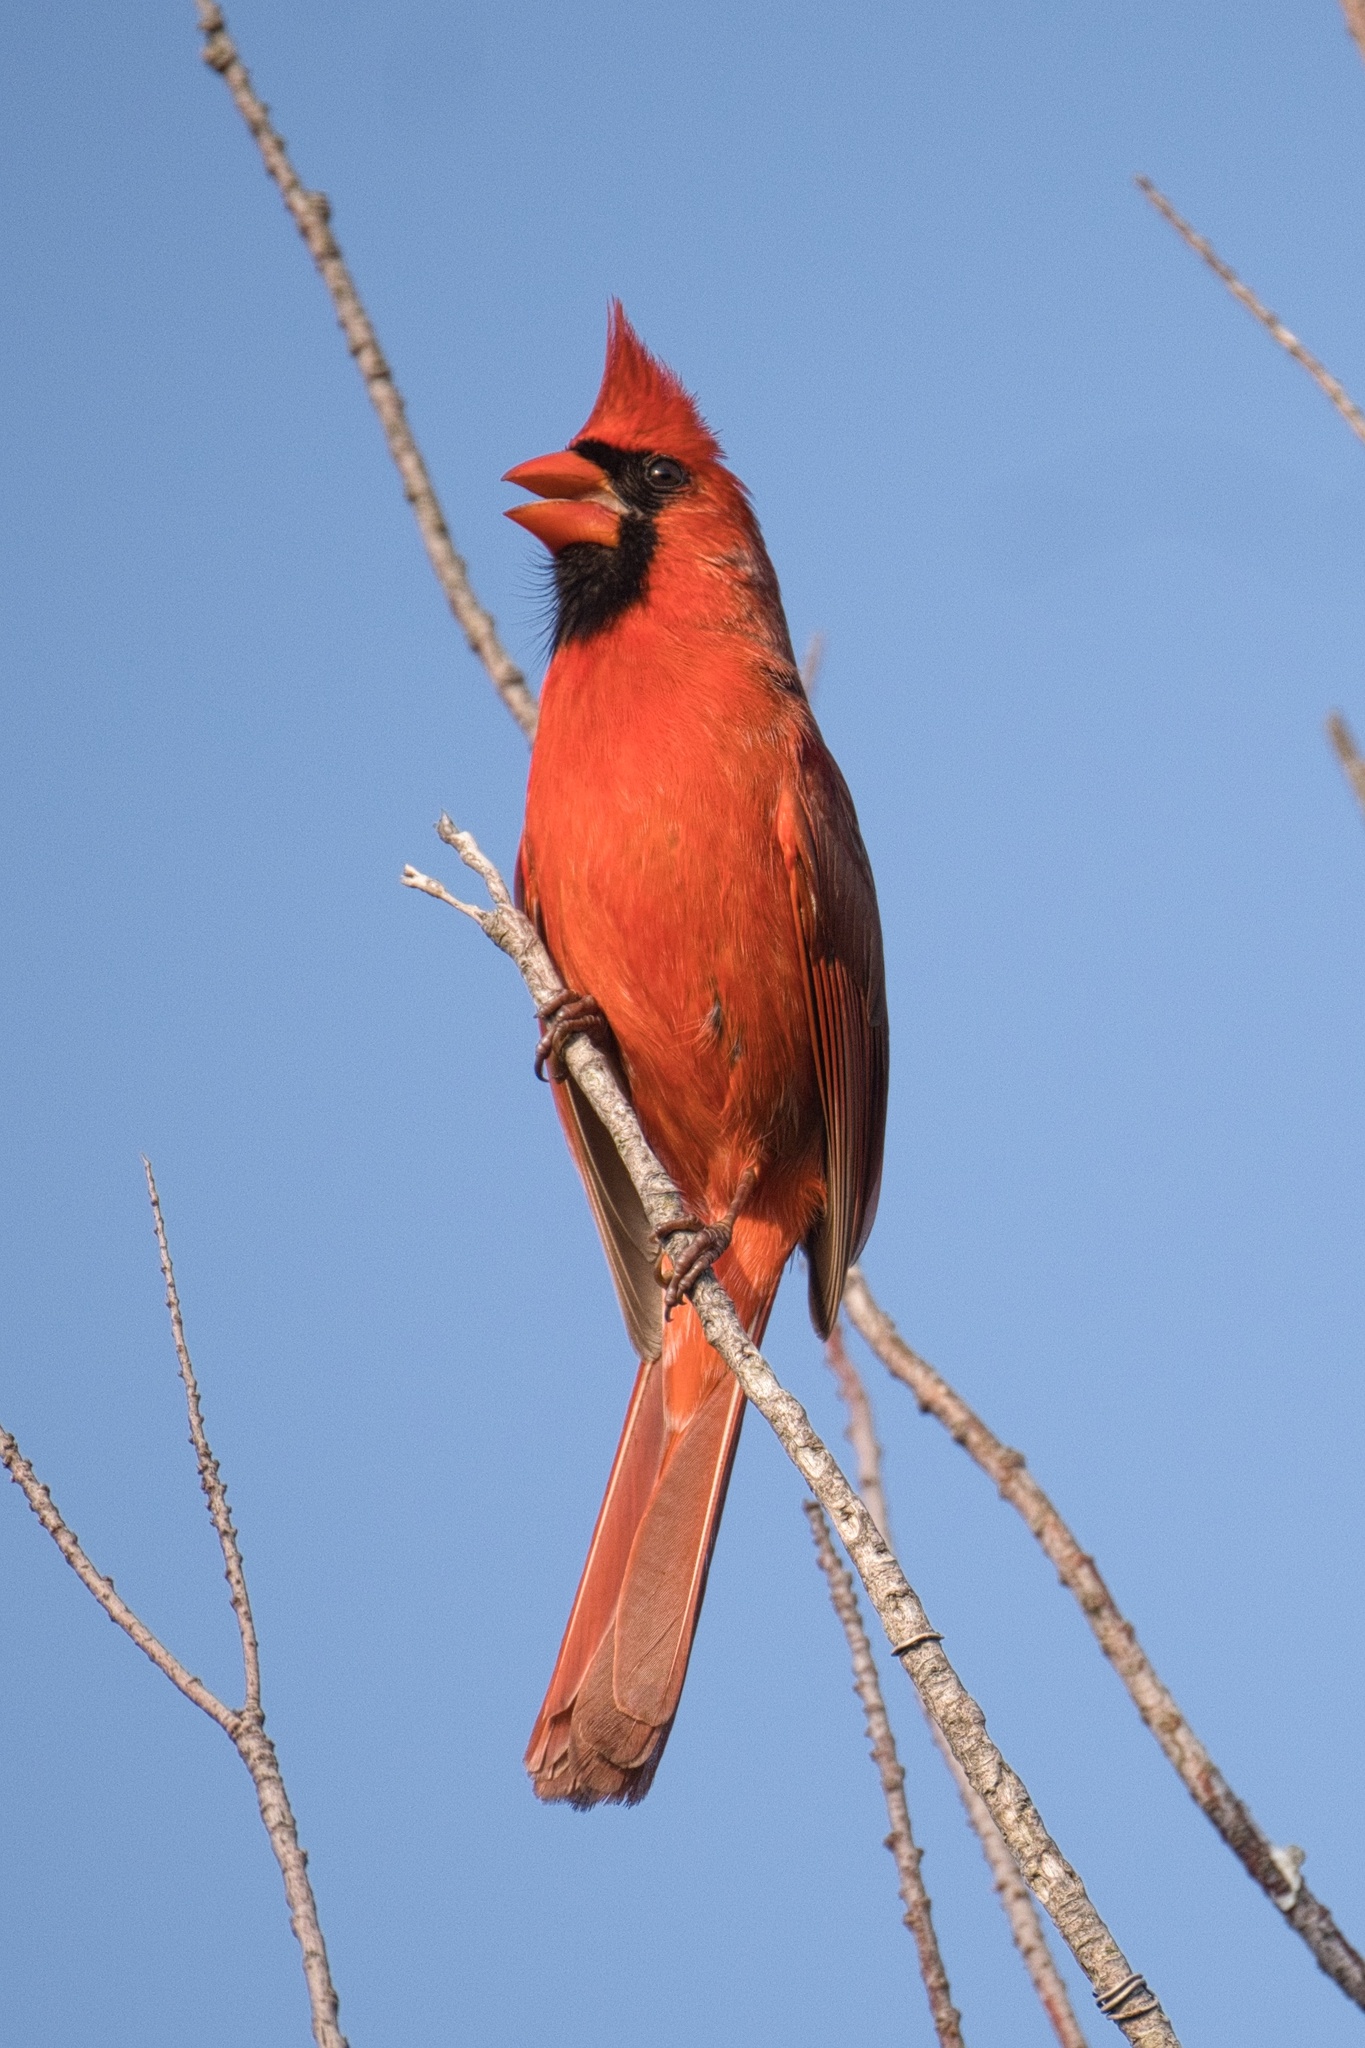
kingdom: Animalia
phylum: Chordata
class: Aves
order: Passeriformes
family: Cardinalidae
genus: Cardinalis
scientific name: Cardinalis cardinalis
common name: Northern cardinal
